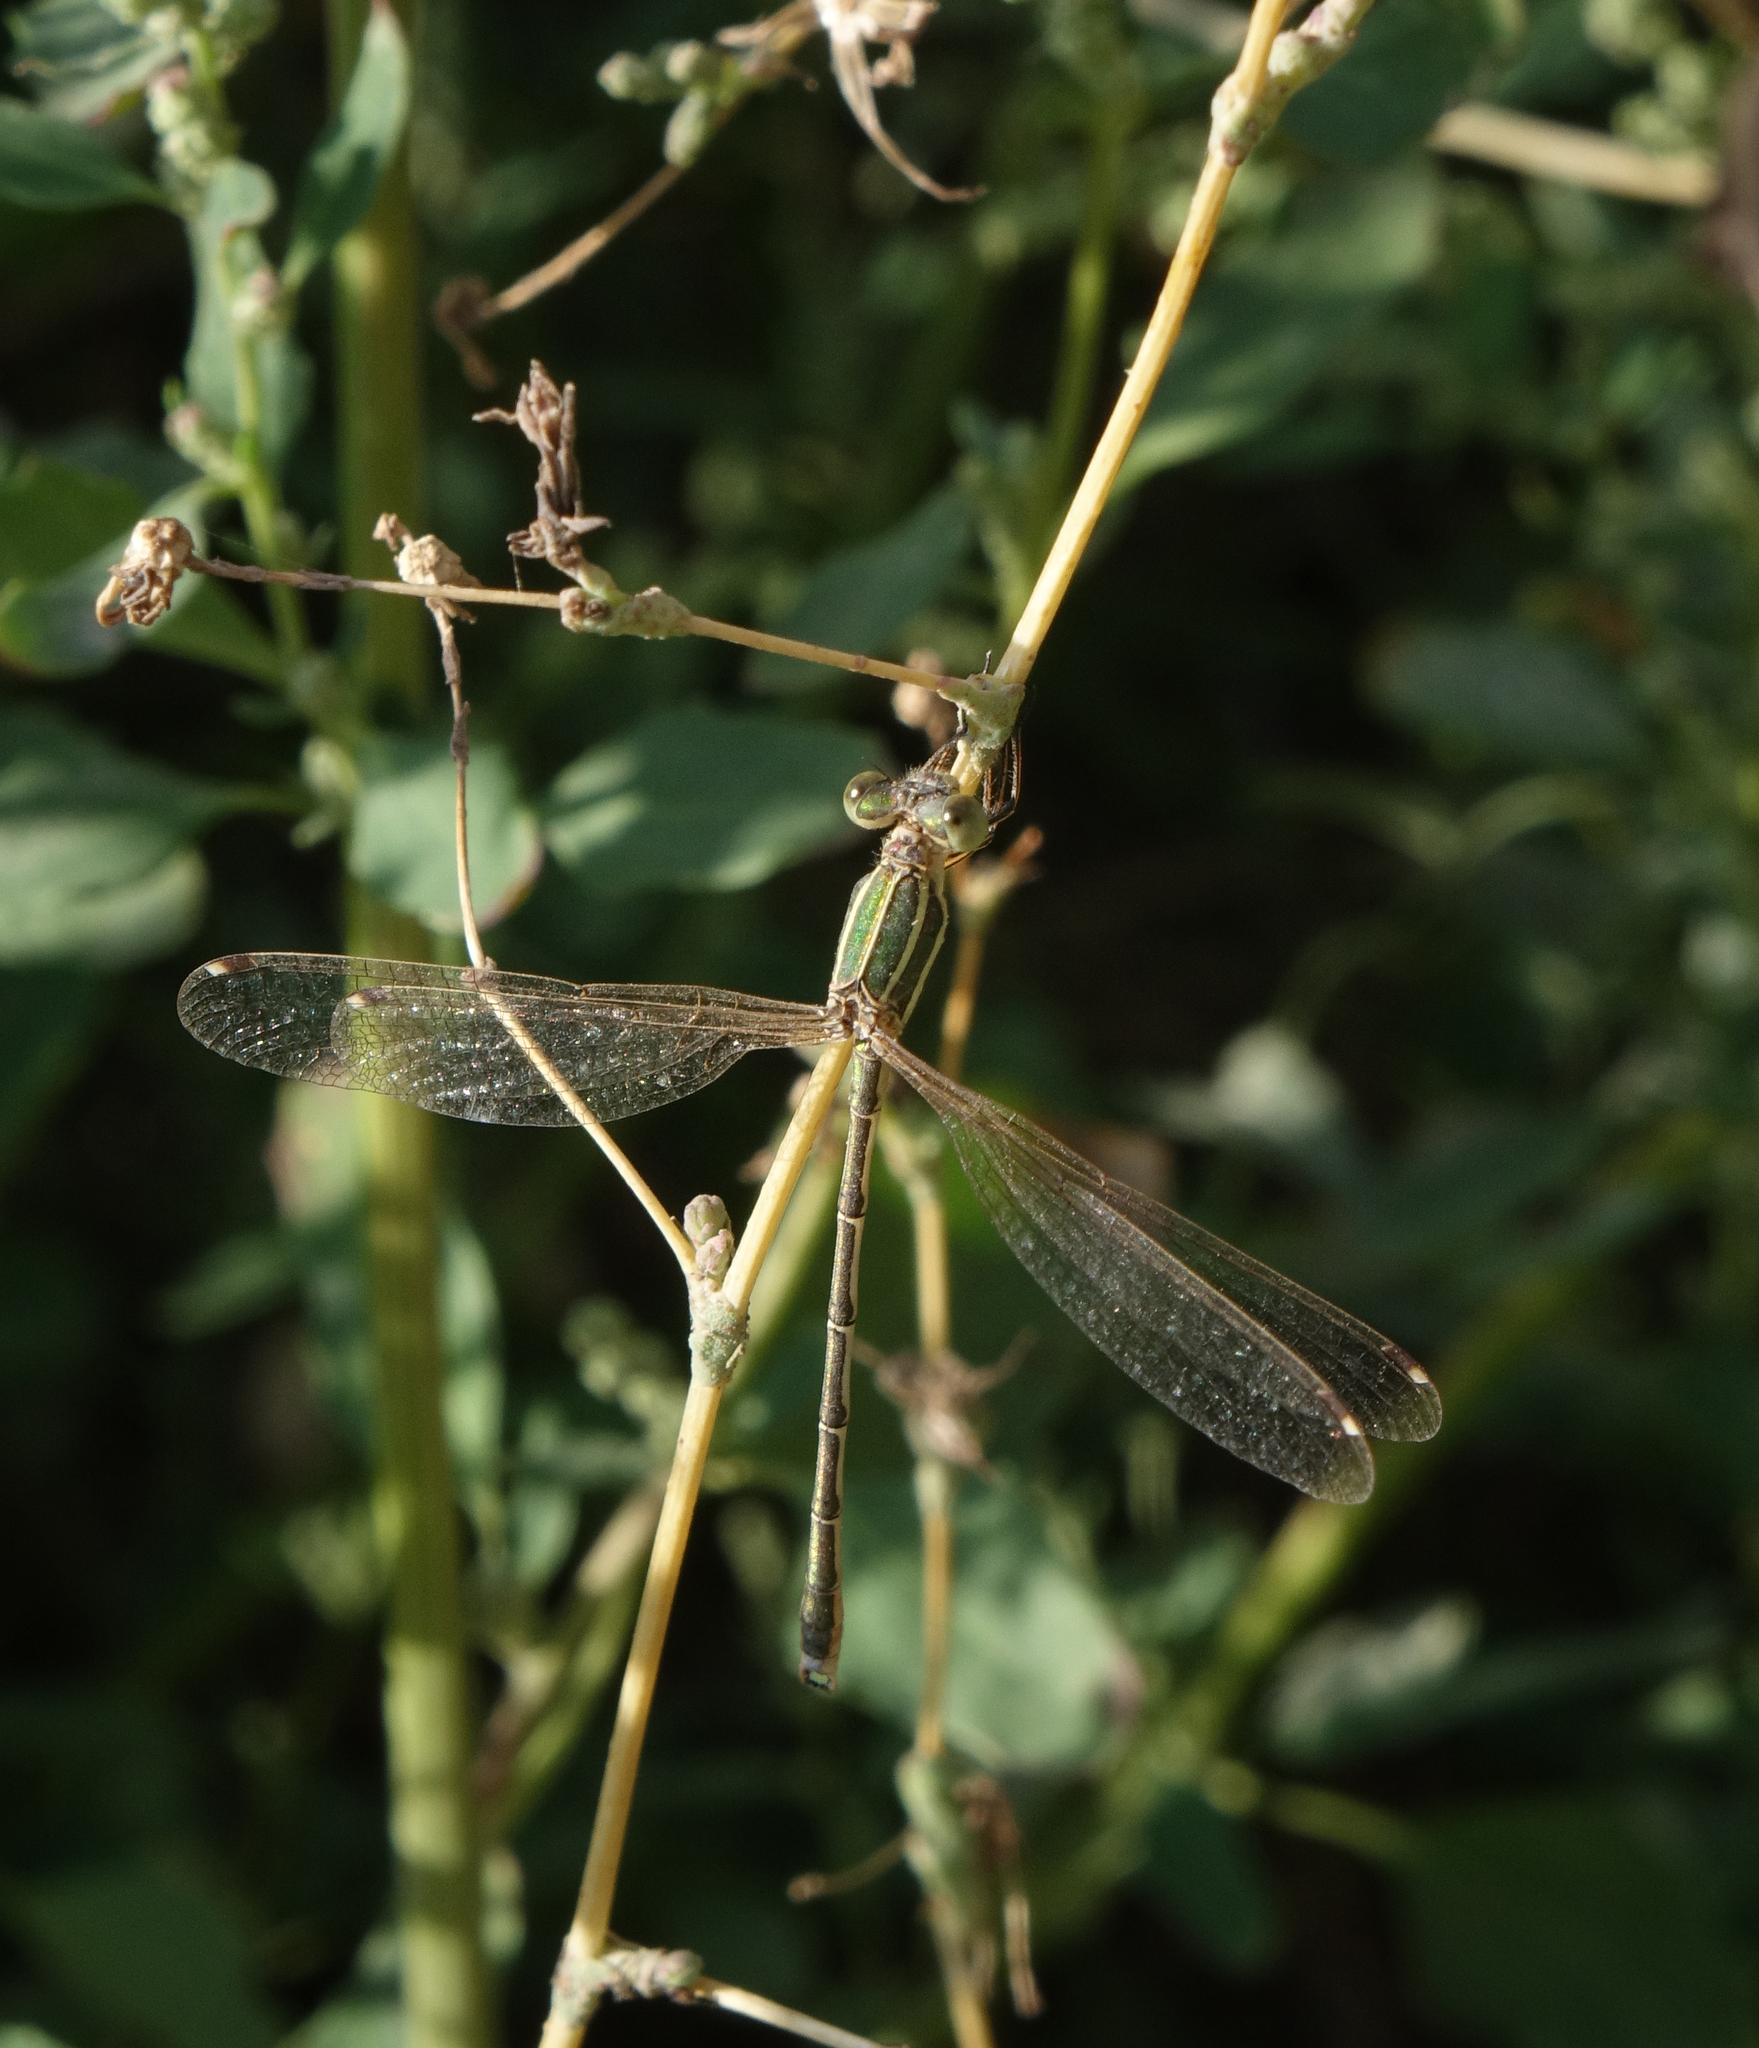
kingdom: Animalia
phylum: Arthropoda
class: Insecta
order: Odonata
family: Lestidae
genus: Lestes
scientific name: Lestes barbarus
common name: Migrant spreadwing
